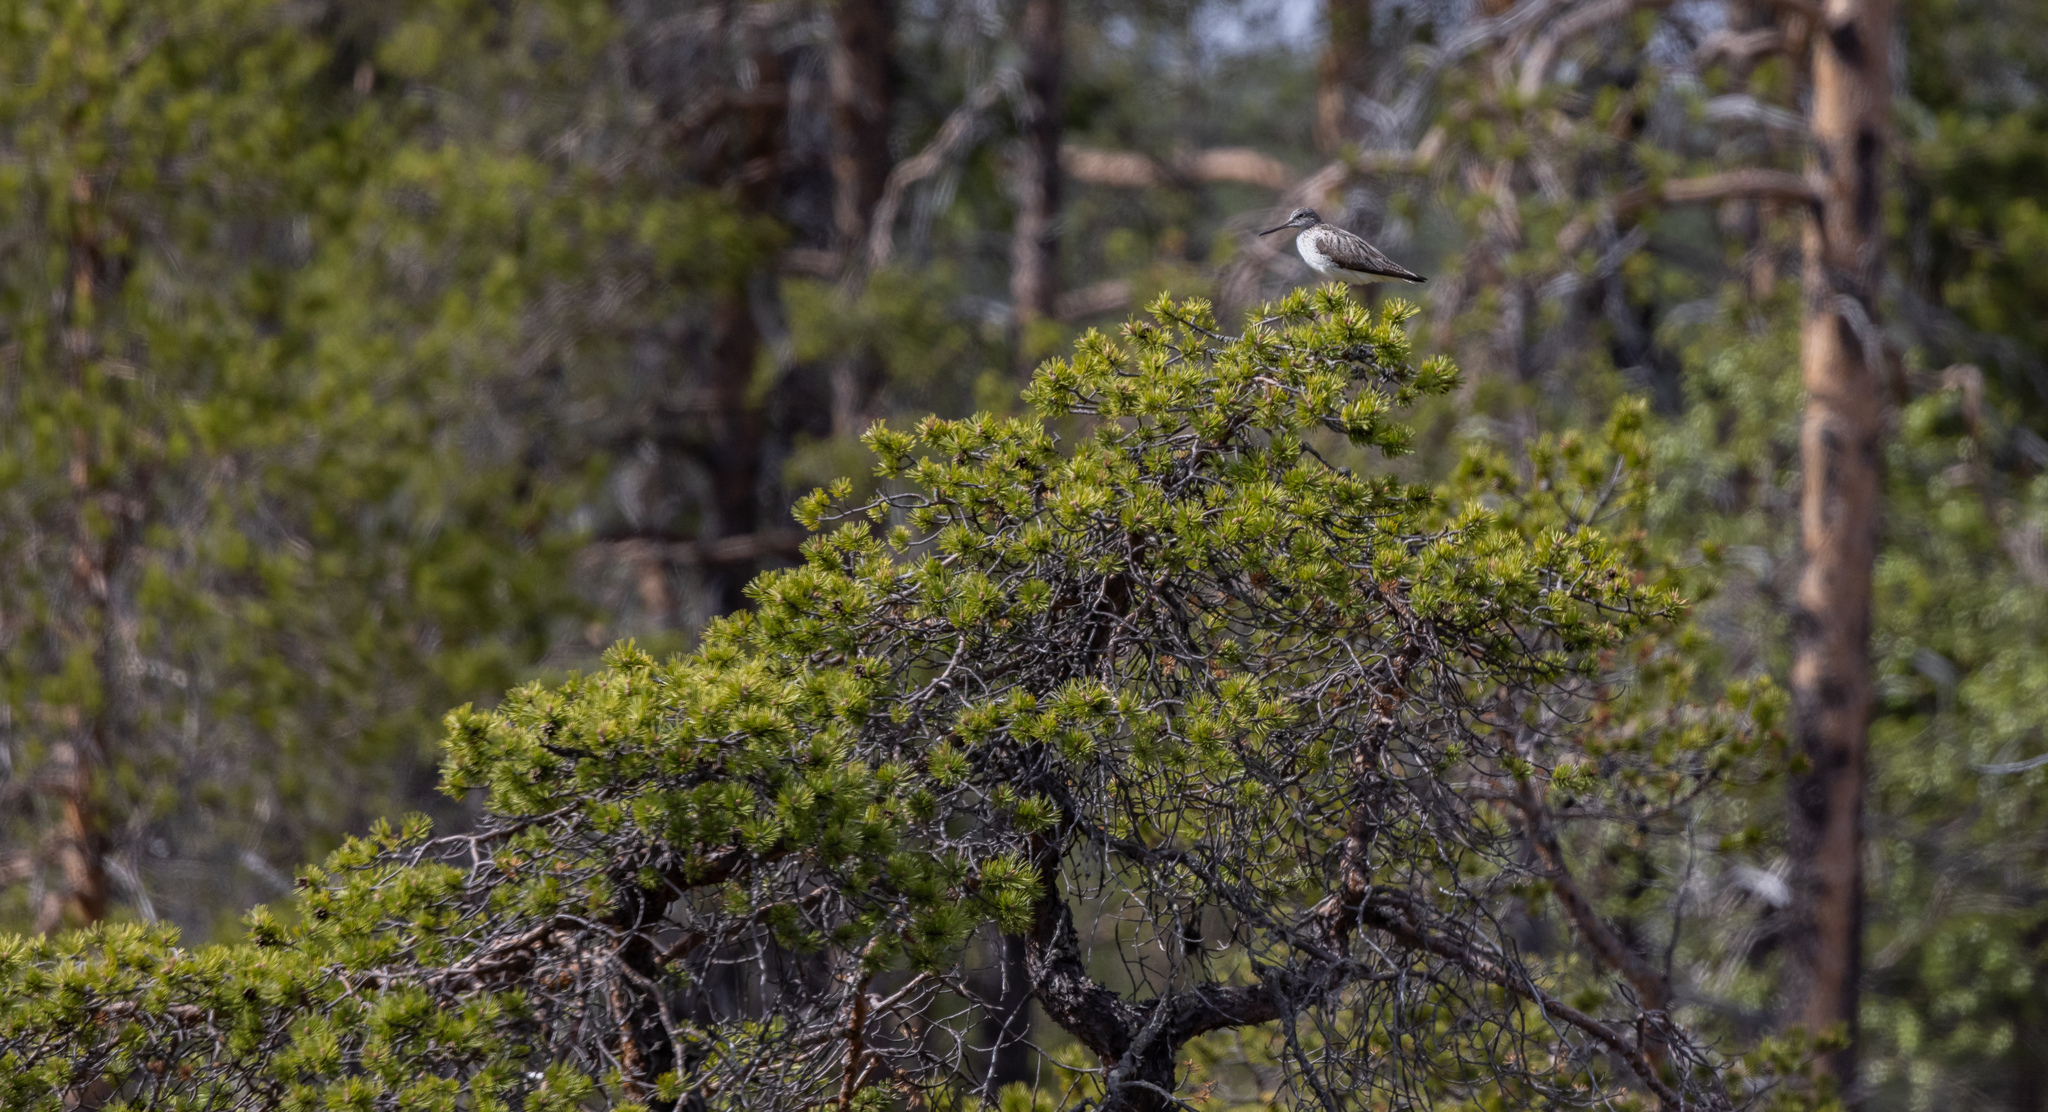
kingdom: Animalia
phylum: Chordata
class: Aves
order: Charadriiformes
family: Scolopacidae
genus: Tringa
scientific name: Tringa nebularia
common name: Common greenshank
